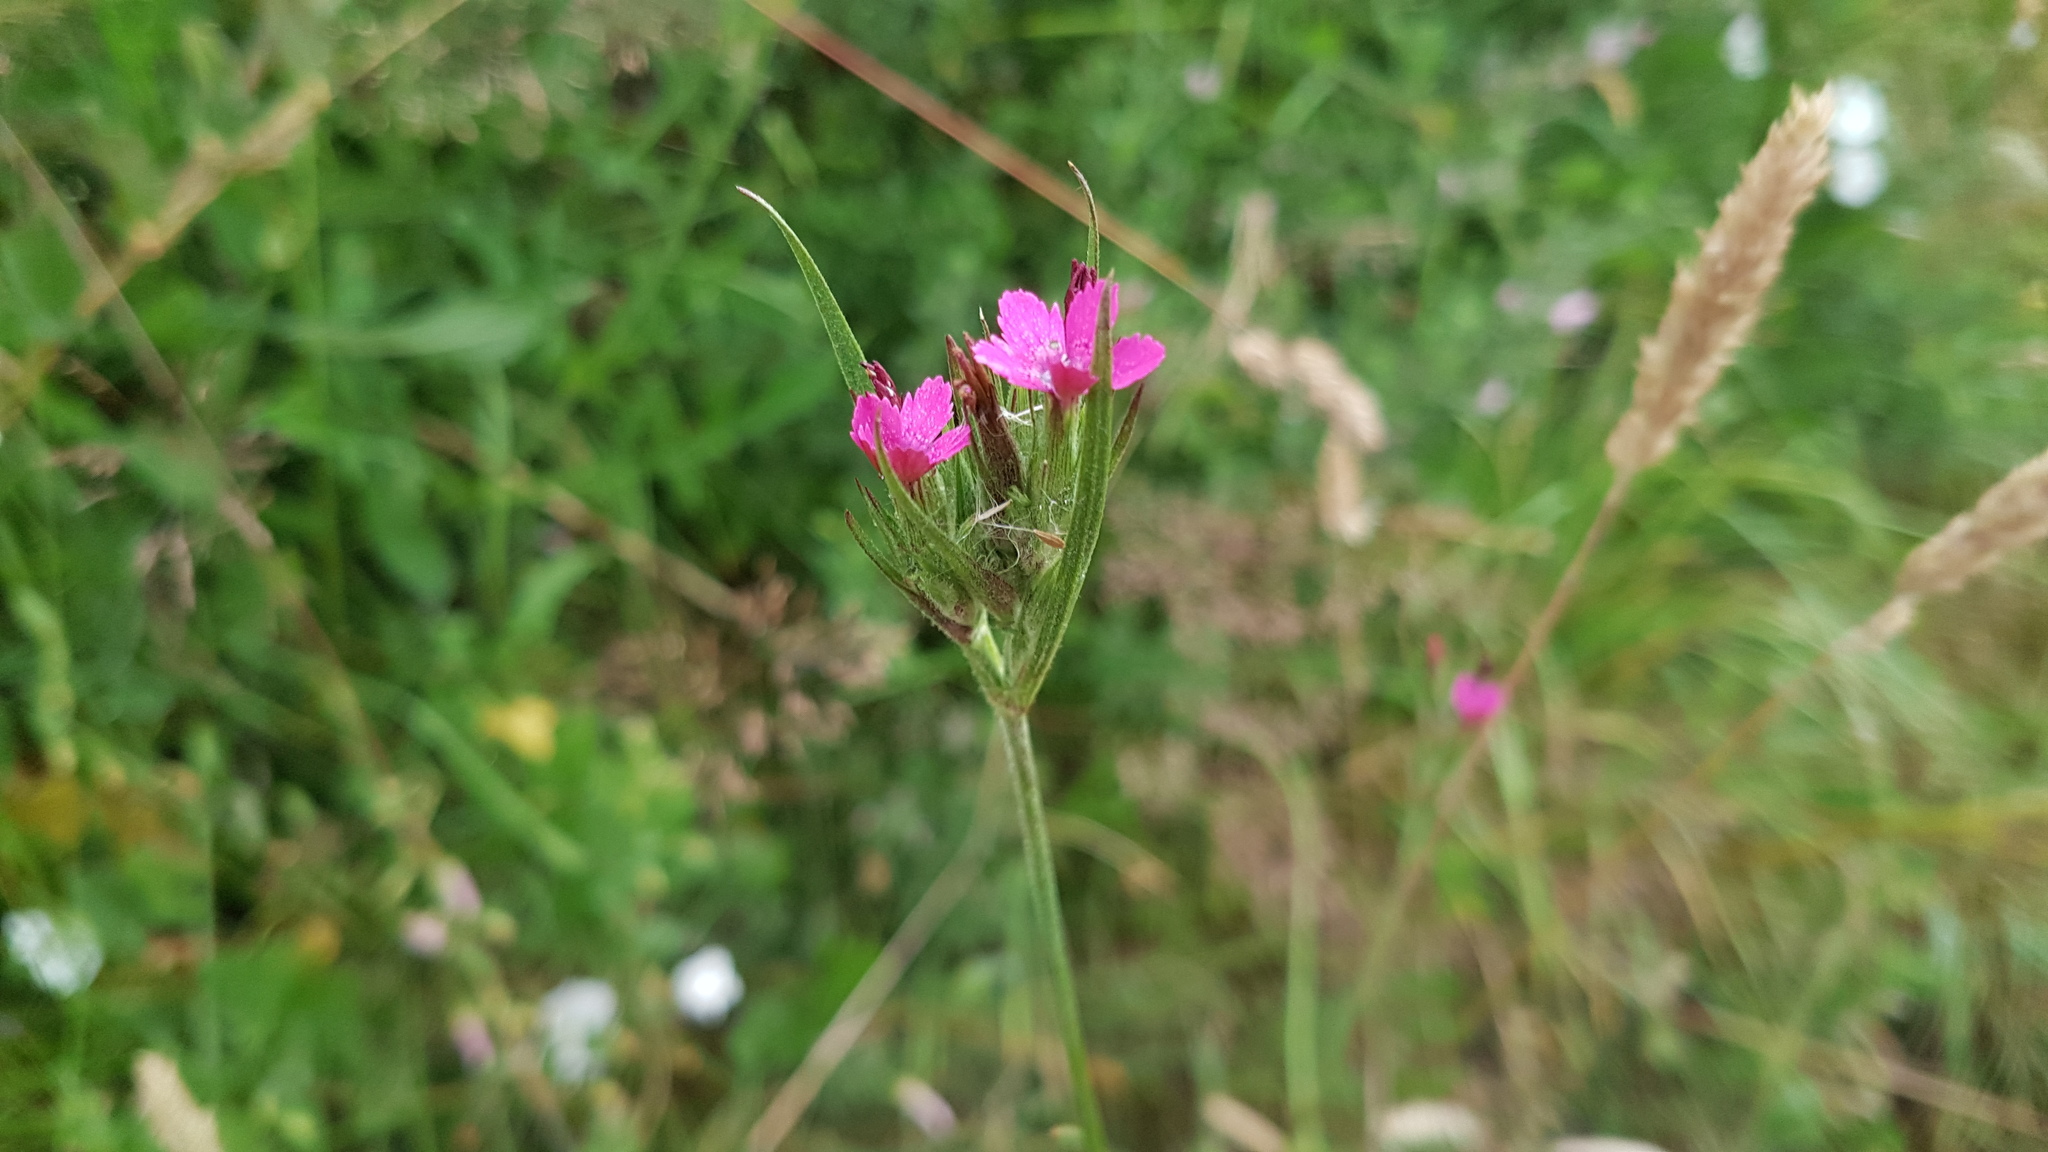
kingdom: Plantae
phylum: Tracheophyta
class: Magnoliopsida
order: Caryophyllales
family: Caryophyllaceae
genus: Dianthus
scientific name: Dianthus armeria
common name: Deptford pink
